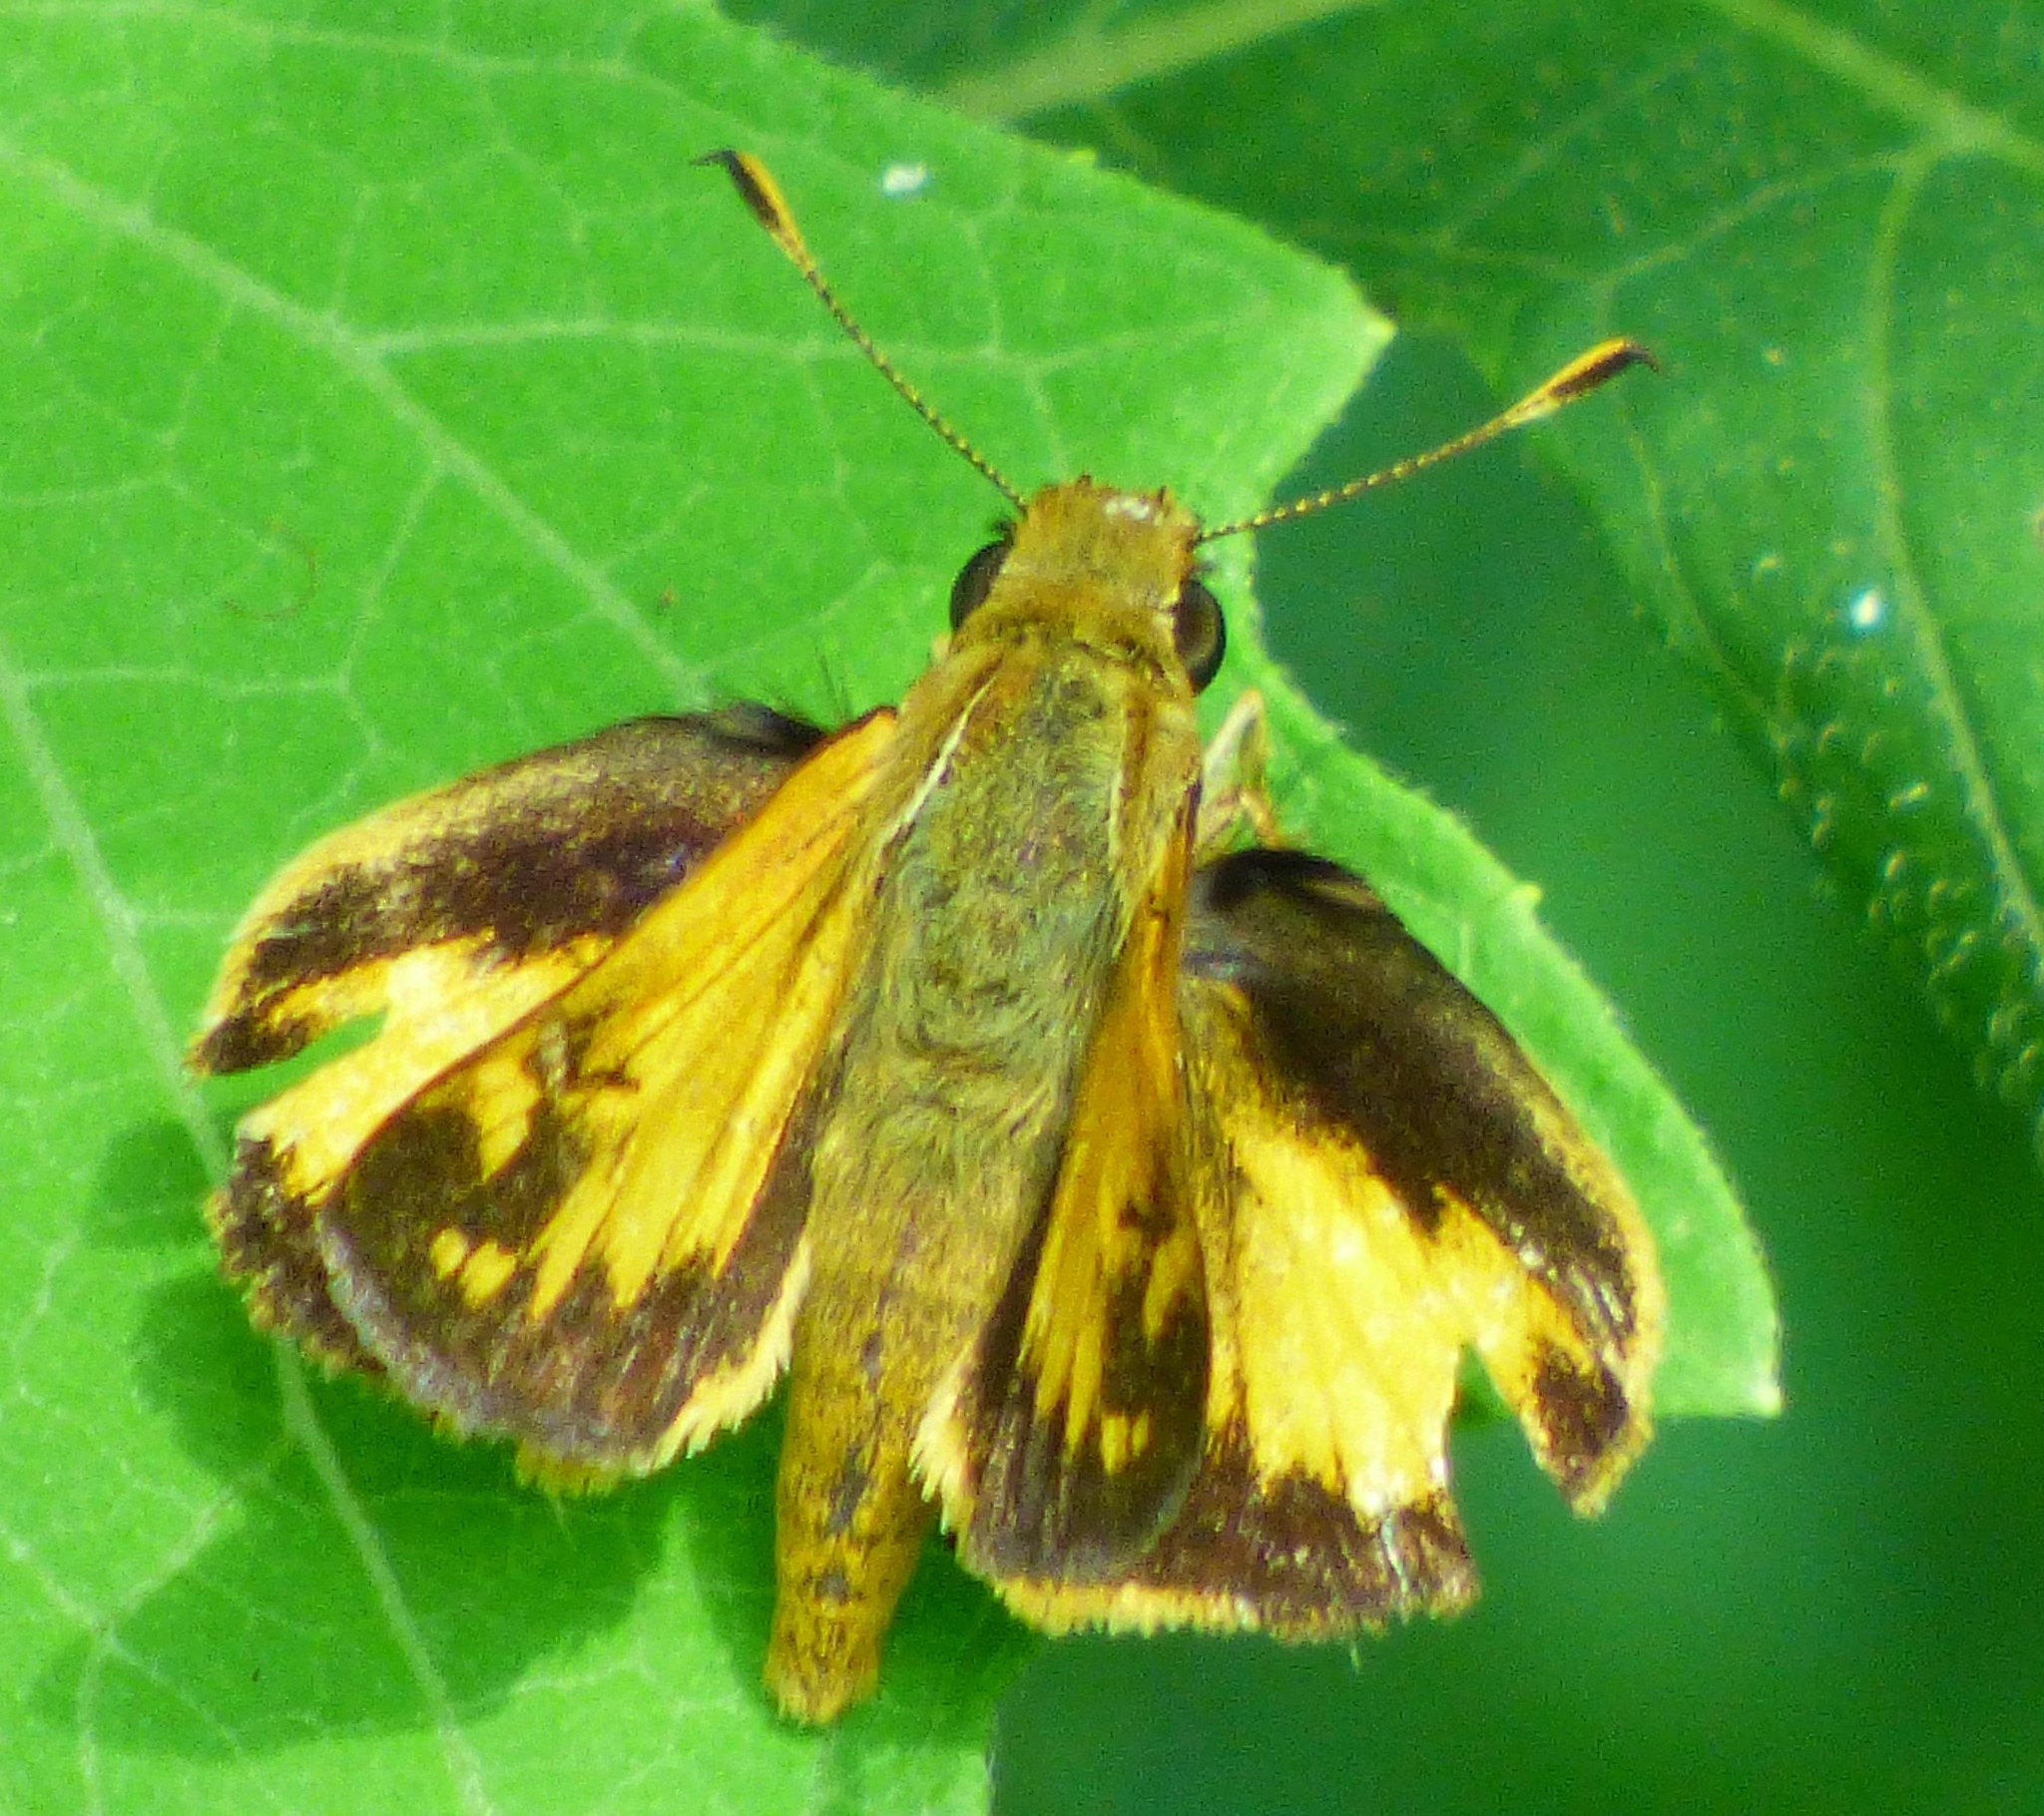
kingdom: Animalia
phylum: Arthropoda
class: Insecta
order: Lepidoptera
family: Hesperiidae
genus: Lon
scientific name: Lon zabulon
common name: Zabulon skipper
